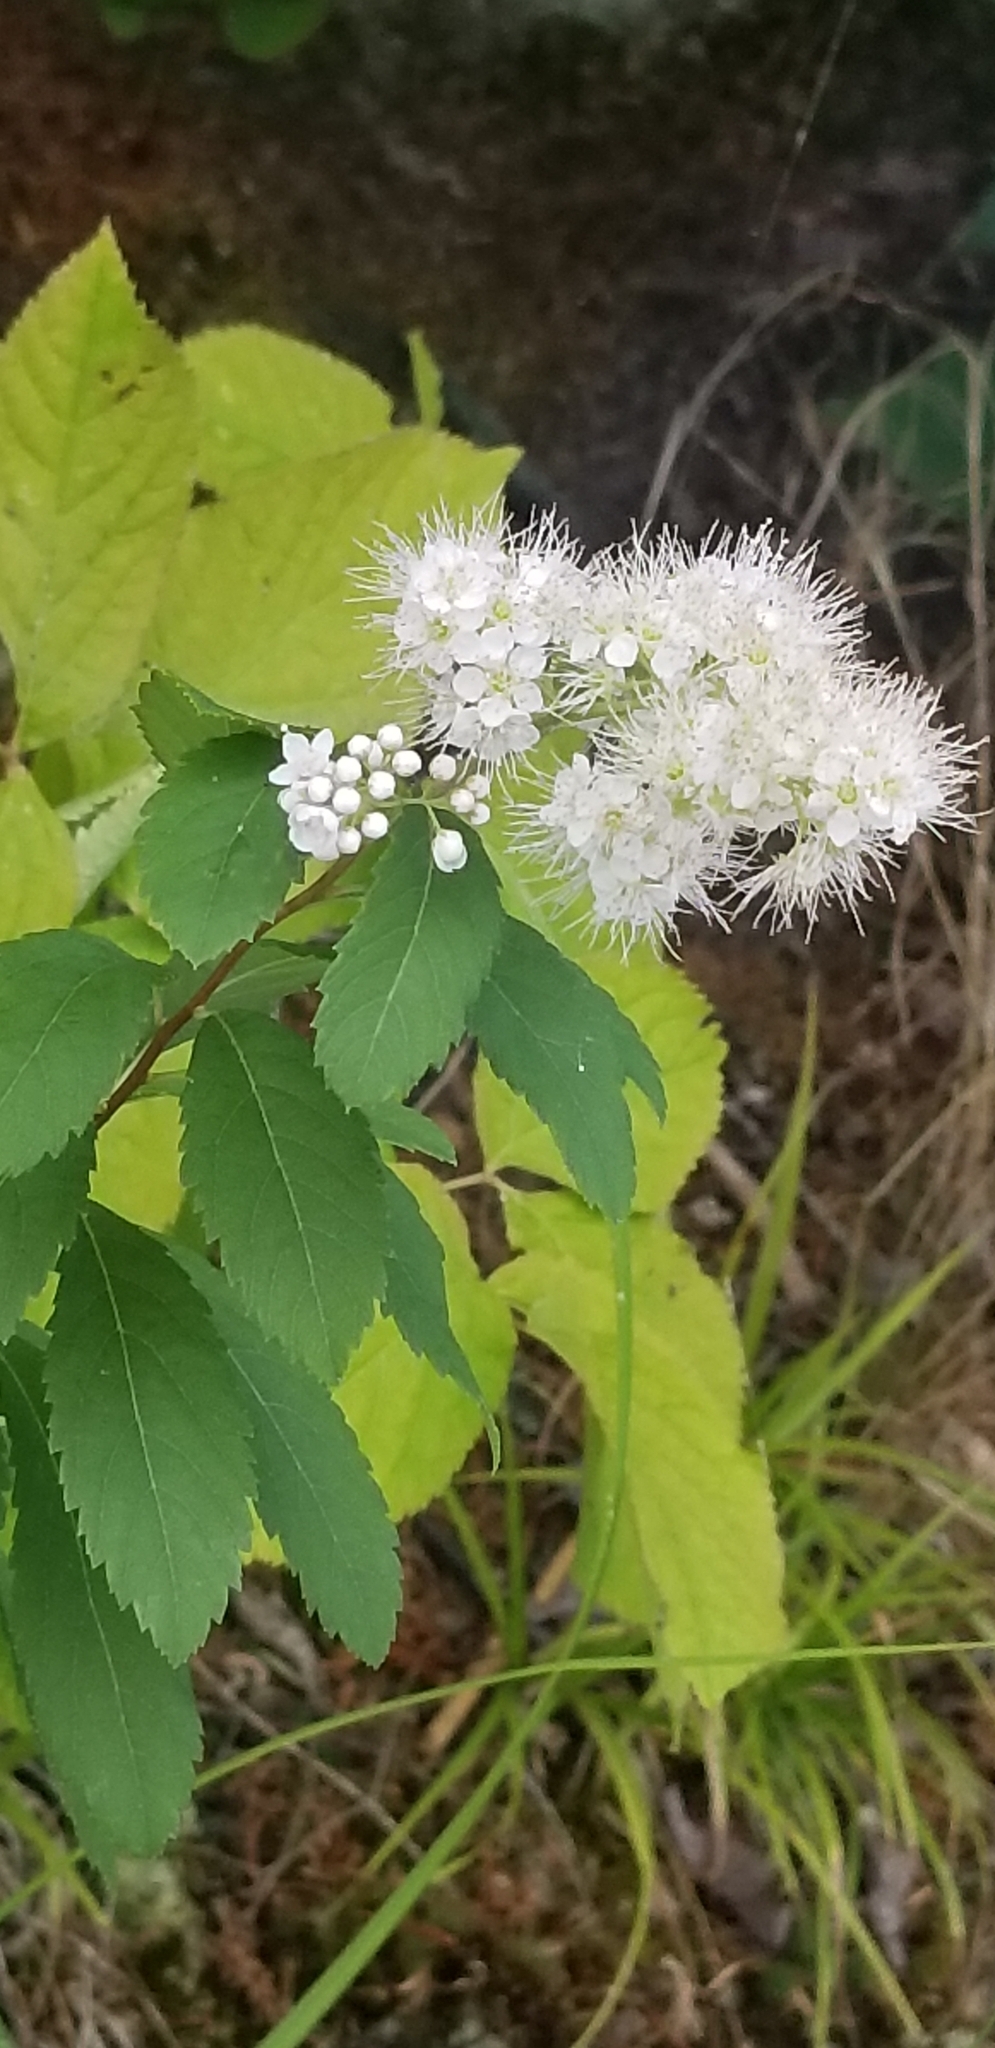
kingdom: Plantae
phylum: Tracheophyta
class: Magnoliopsida
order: Rosales
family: Rosaceae
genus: Spiraea
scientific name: Spiraea alba
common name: Pale bridewort
